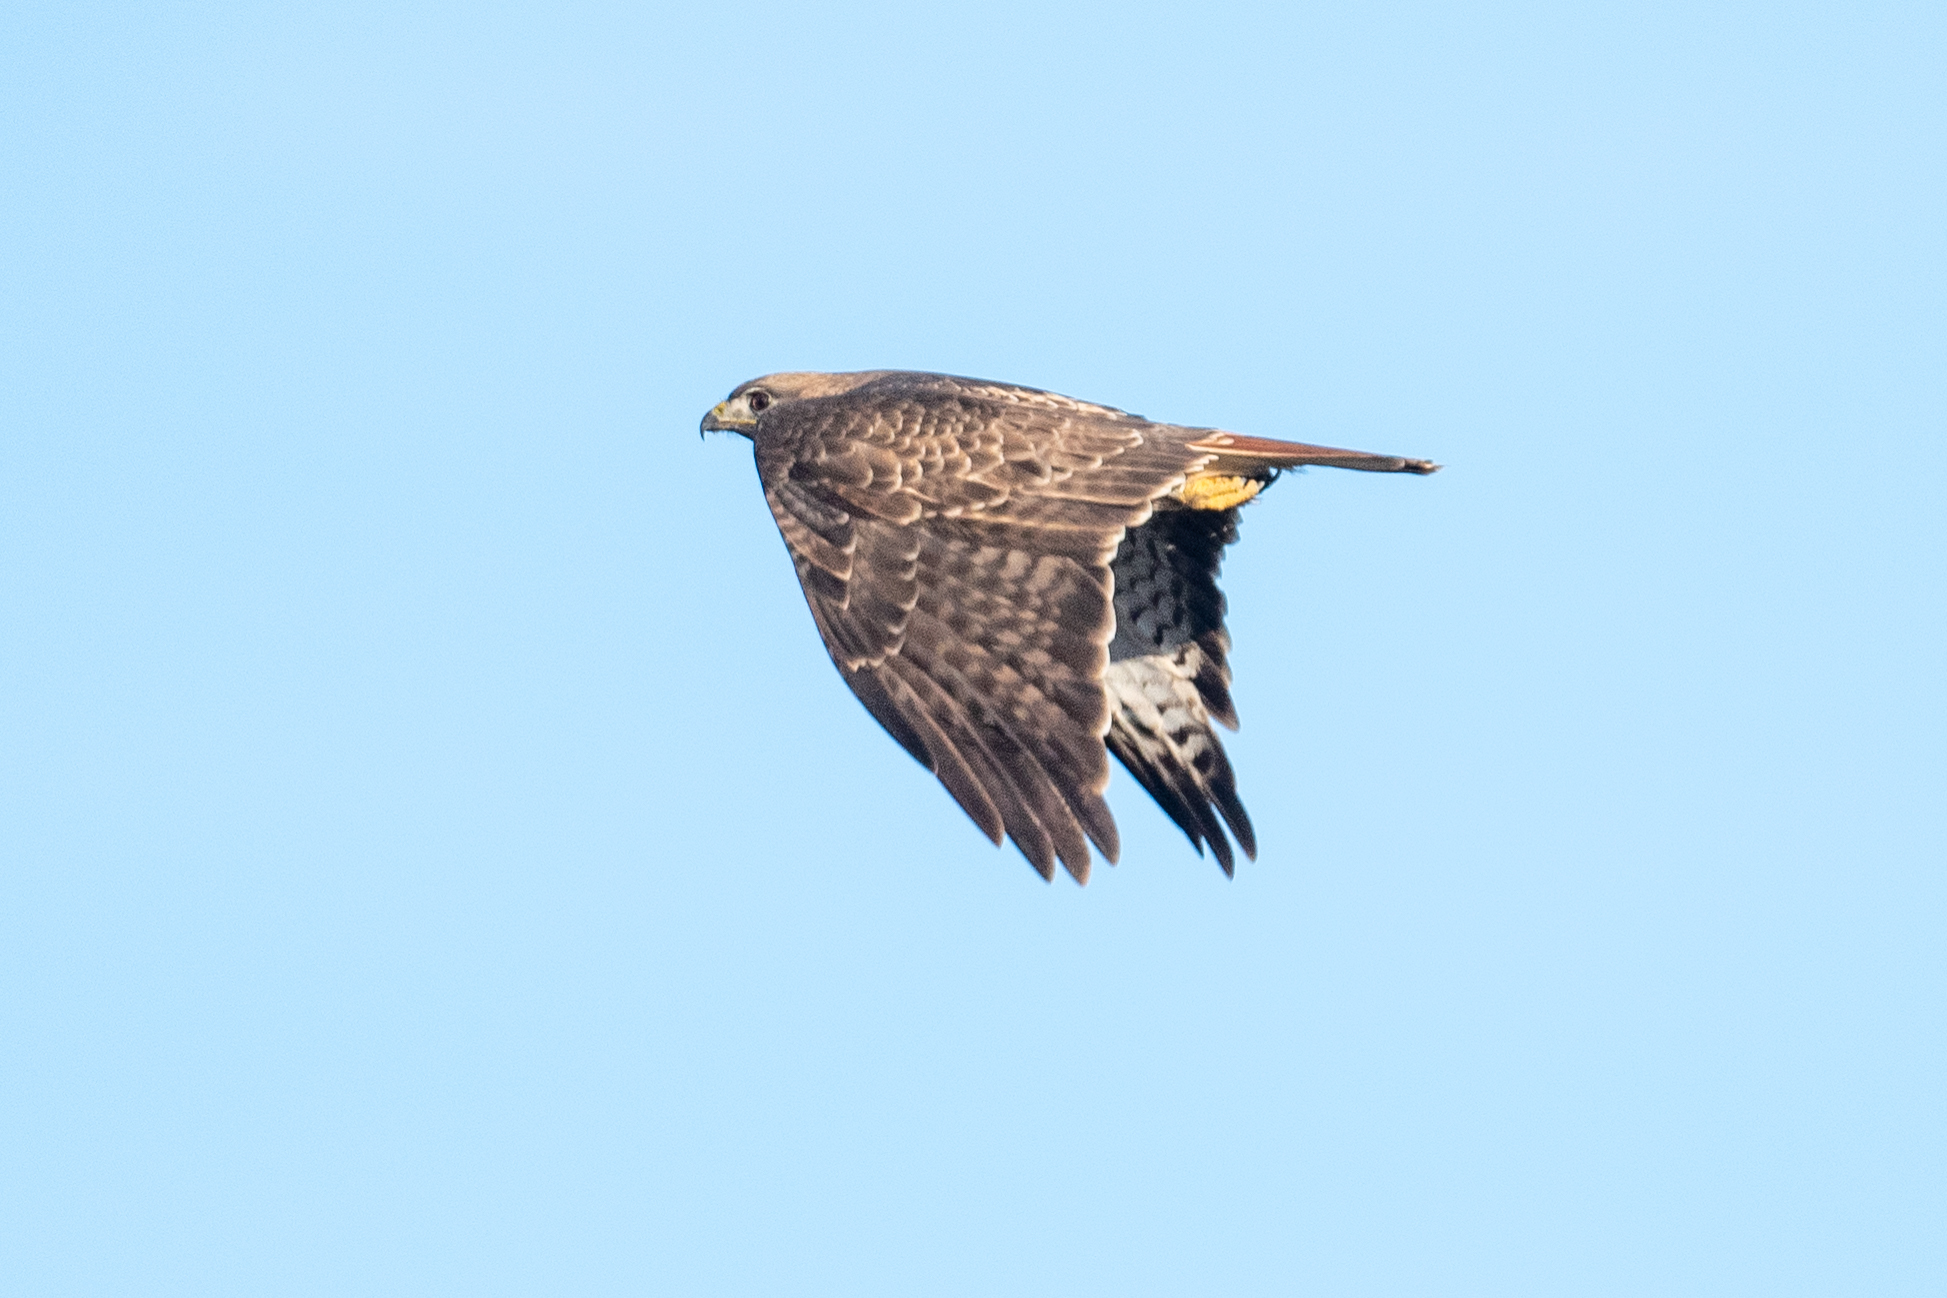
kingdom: Animalia
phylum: Chordata
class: Aves
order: Accipitriformes
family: Accipitridae
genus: Buteo
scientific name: Buteo jamaicensis
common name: Red-tailed hawk
